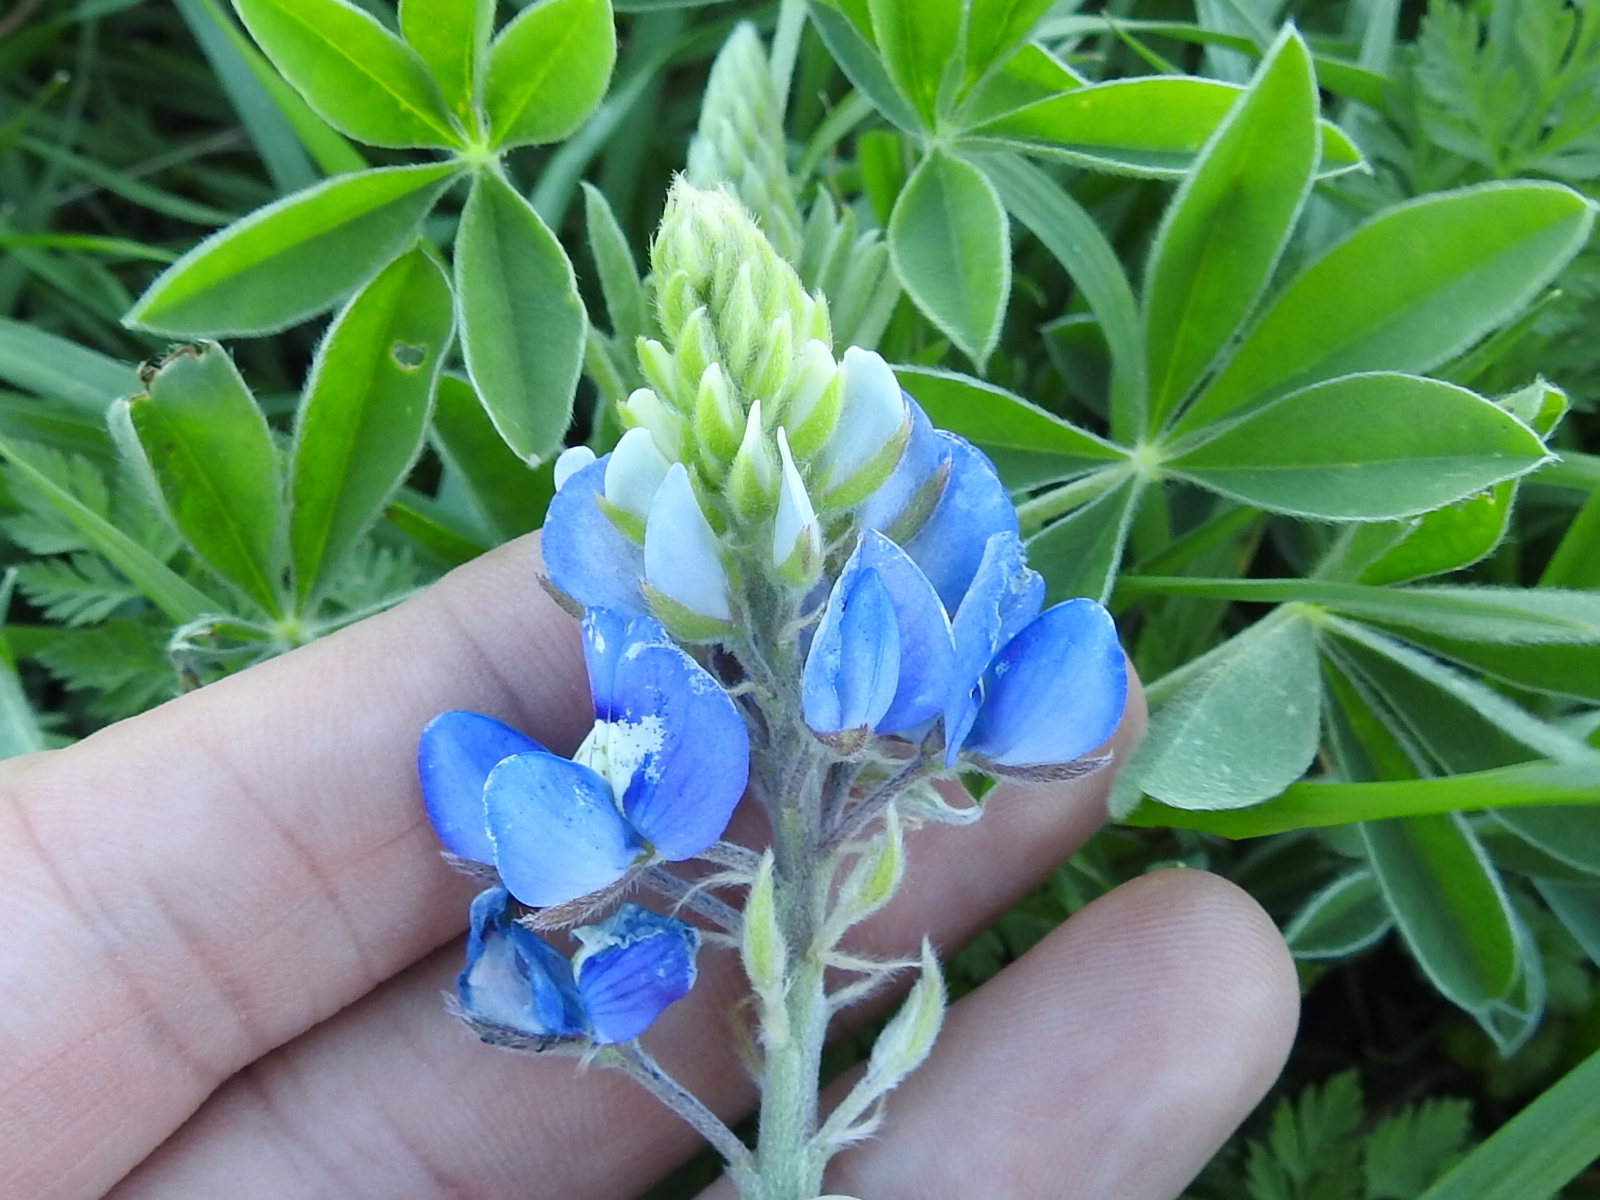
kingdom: Plantae
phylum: Tracheophyta
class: Magnoliopsida
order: Fabales
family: Fabaceae
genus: Lupinus
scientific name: Lupinus texensis
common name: Texas bluebonnet
